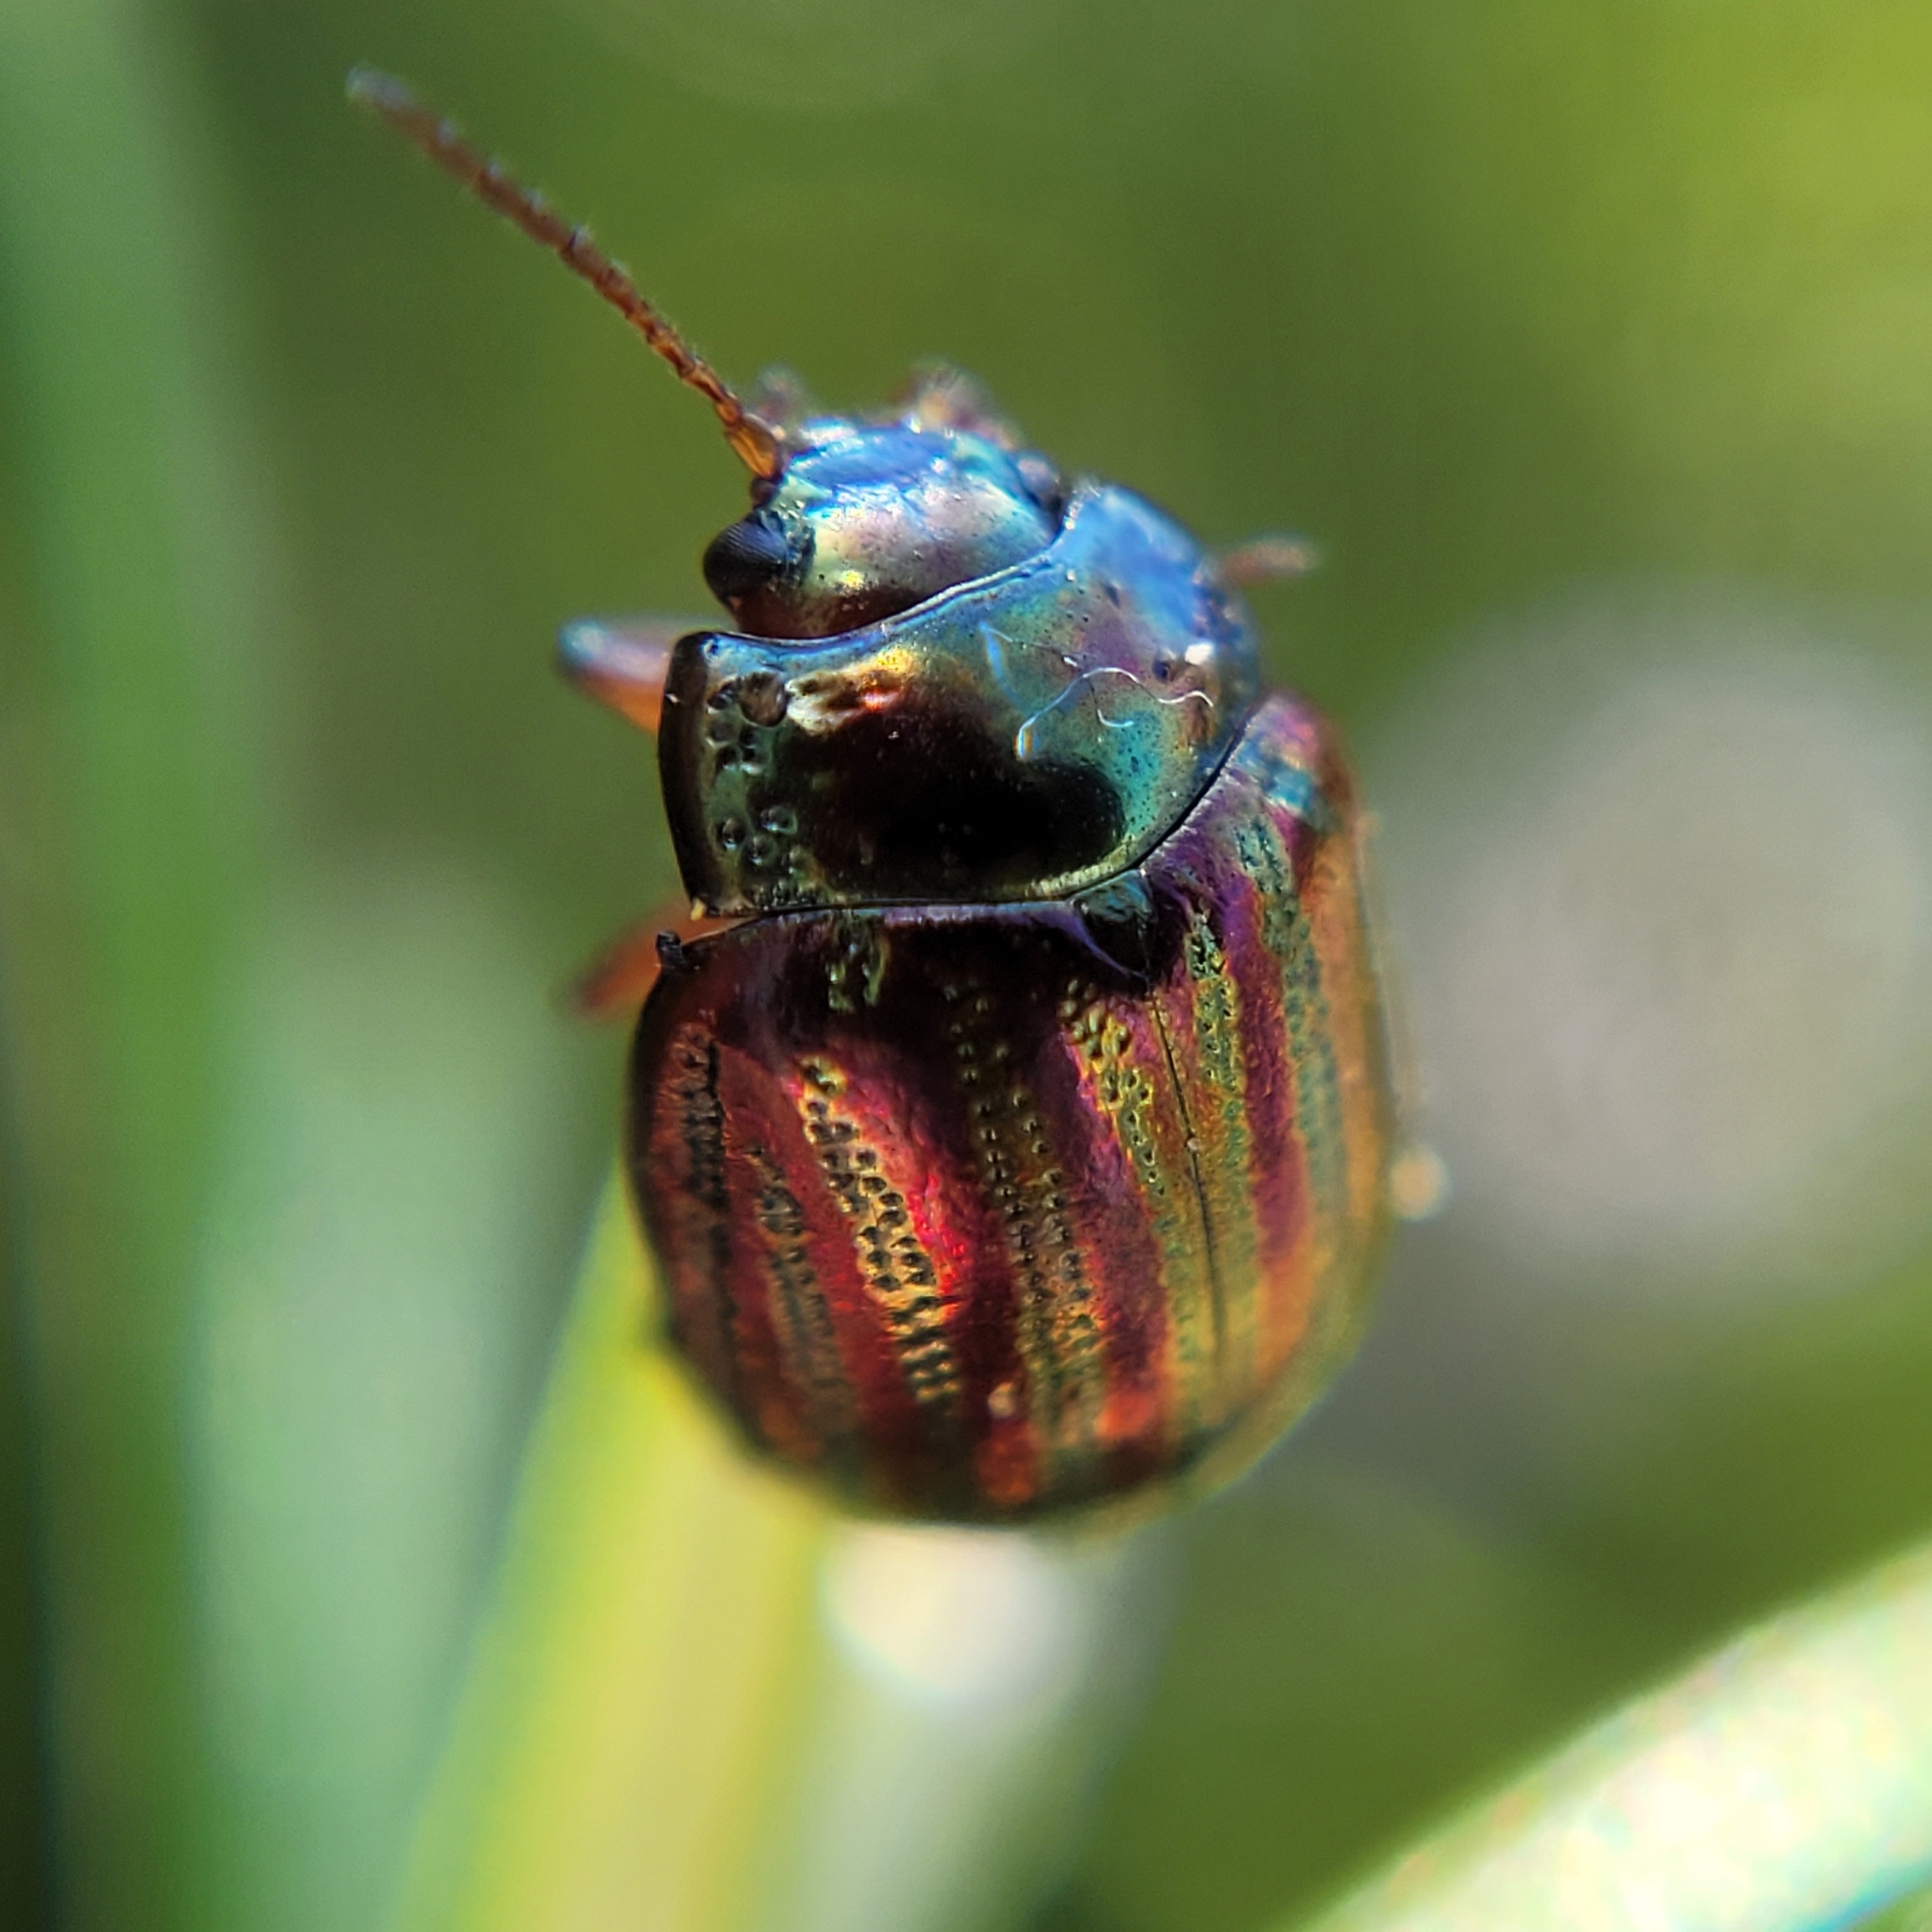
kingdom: Animalia
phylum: Arthropoda
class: Insecta
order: Coleoptera
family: Chrysomelidae
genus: Chrysolina
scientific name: Chrysolina americana
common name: Rosemary beetle
